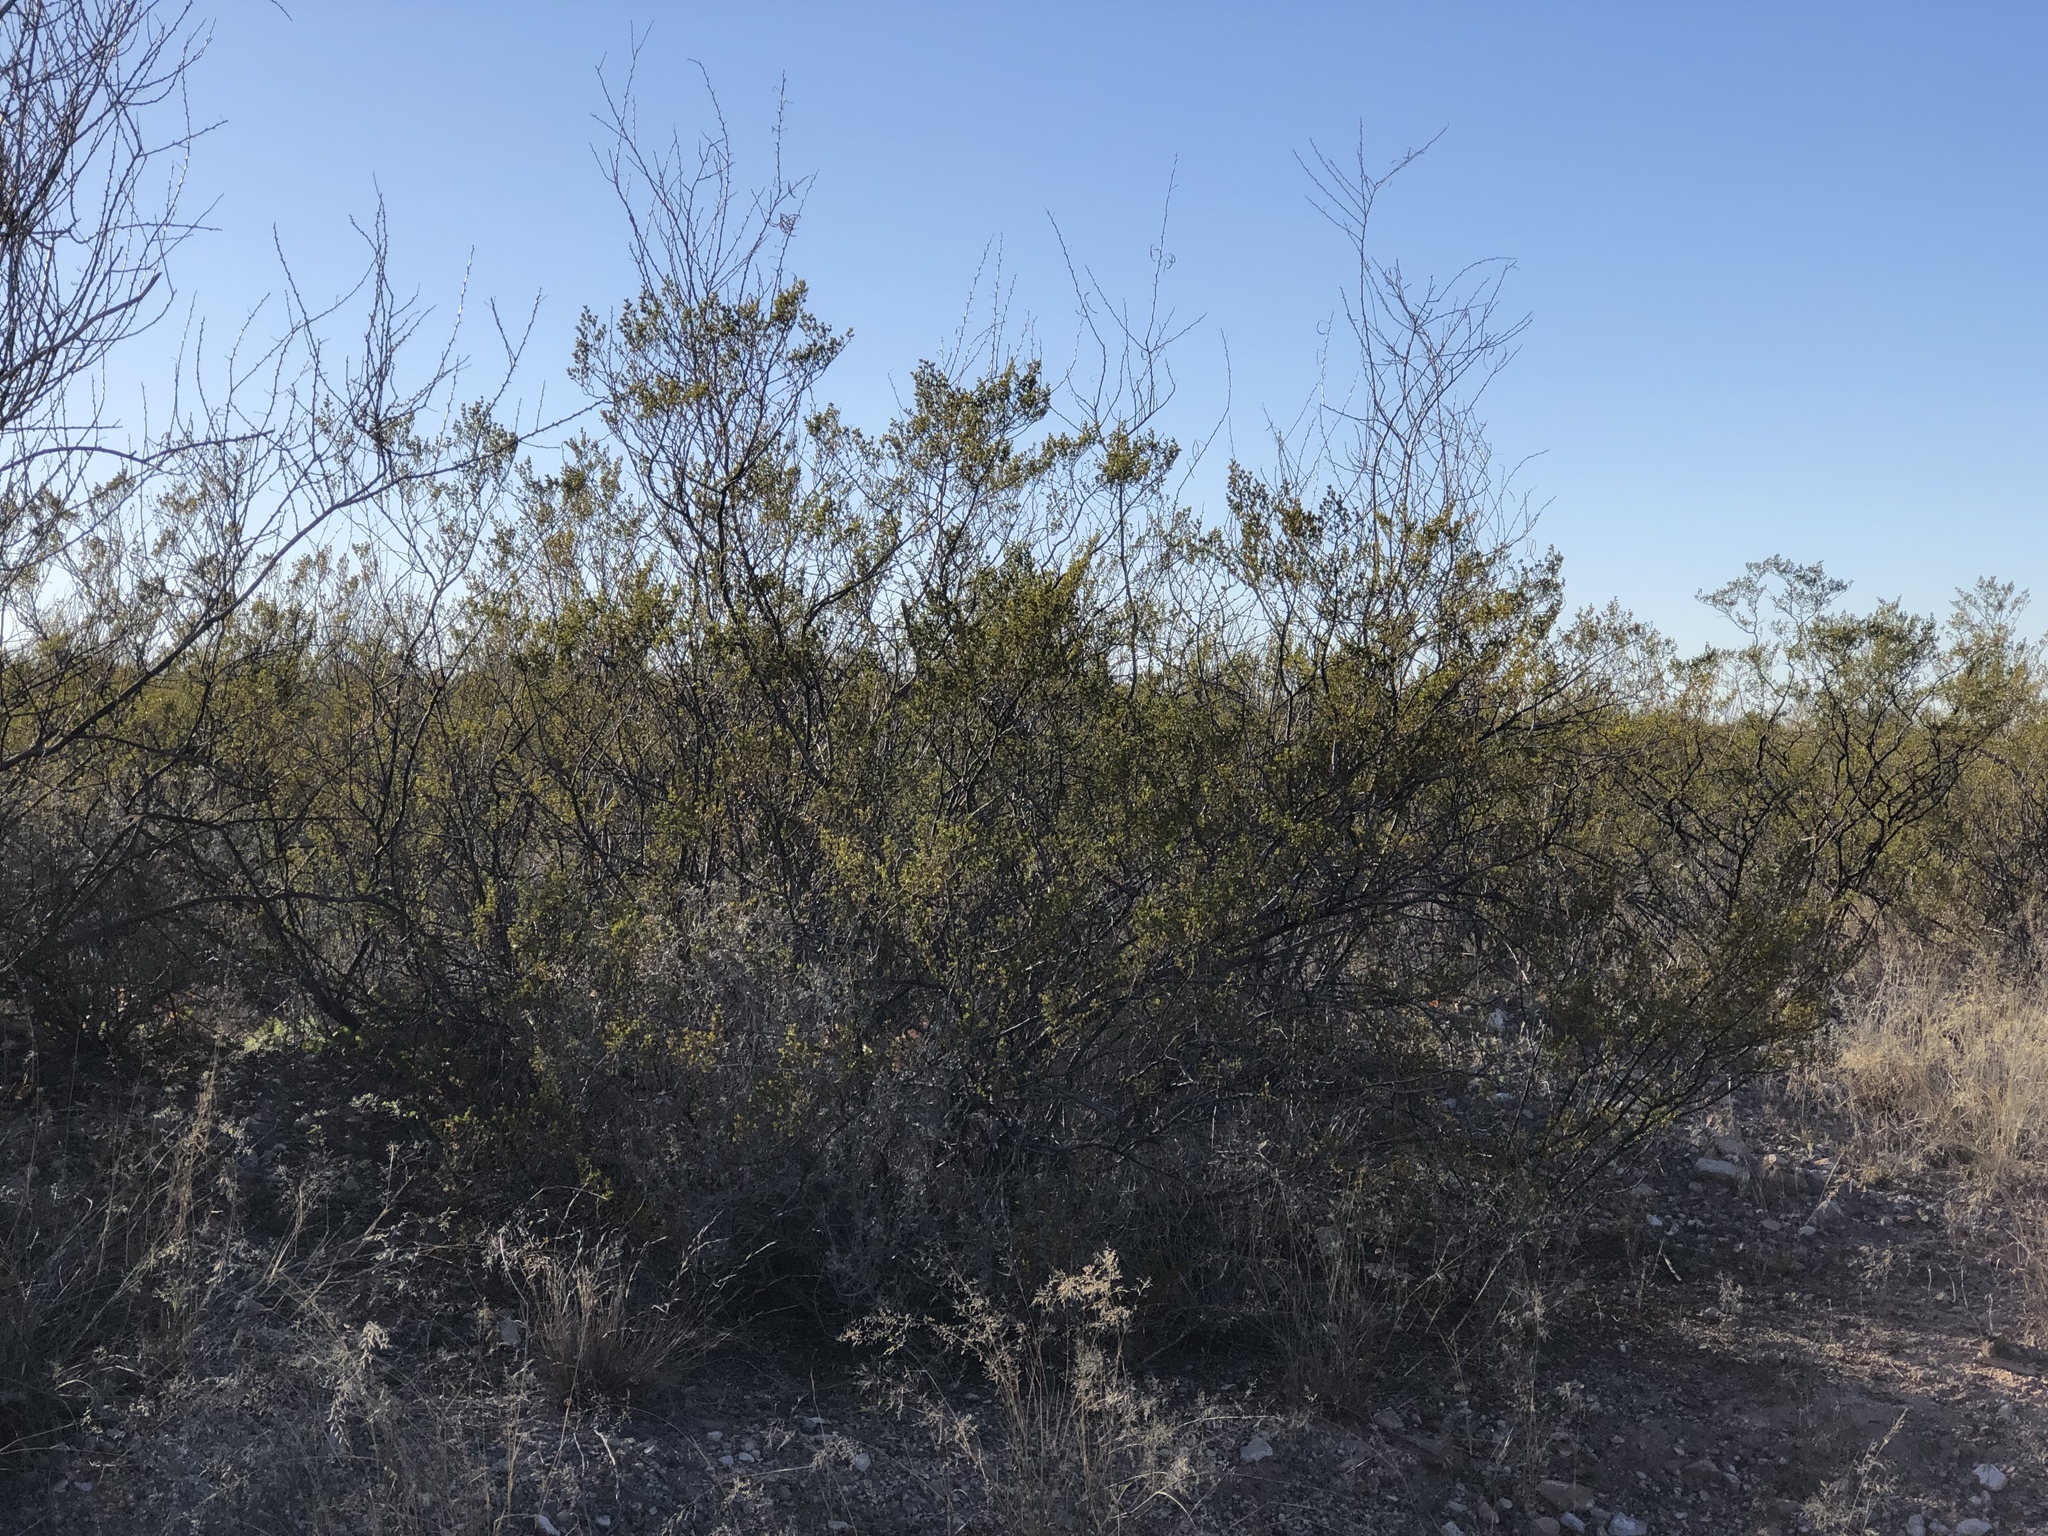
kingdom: Plantae
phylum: Tracheophyta
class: Magnoliopsida
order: Zygophyllales
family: Zygophyllaceae
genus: Larrea
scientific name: Larrea tridentata
